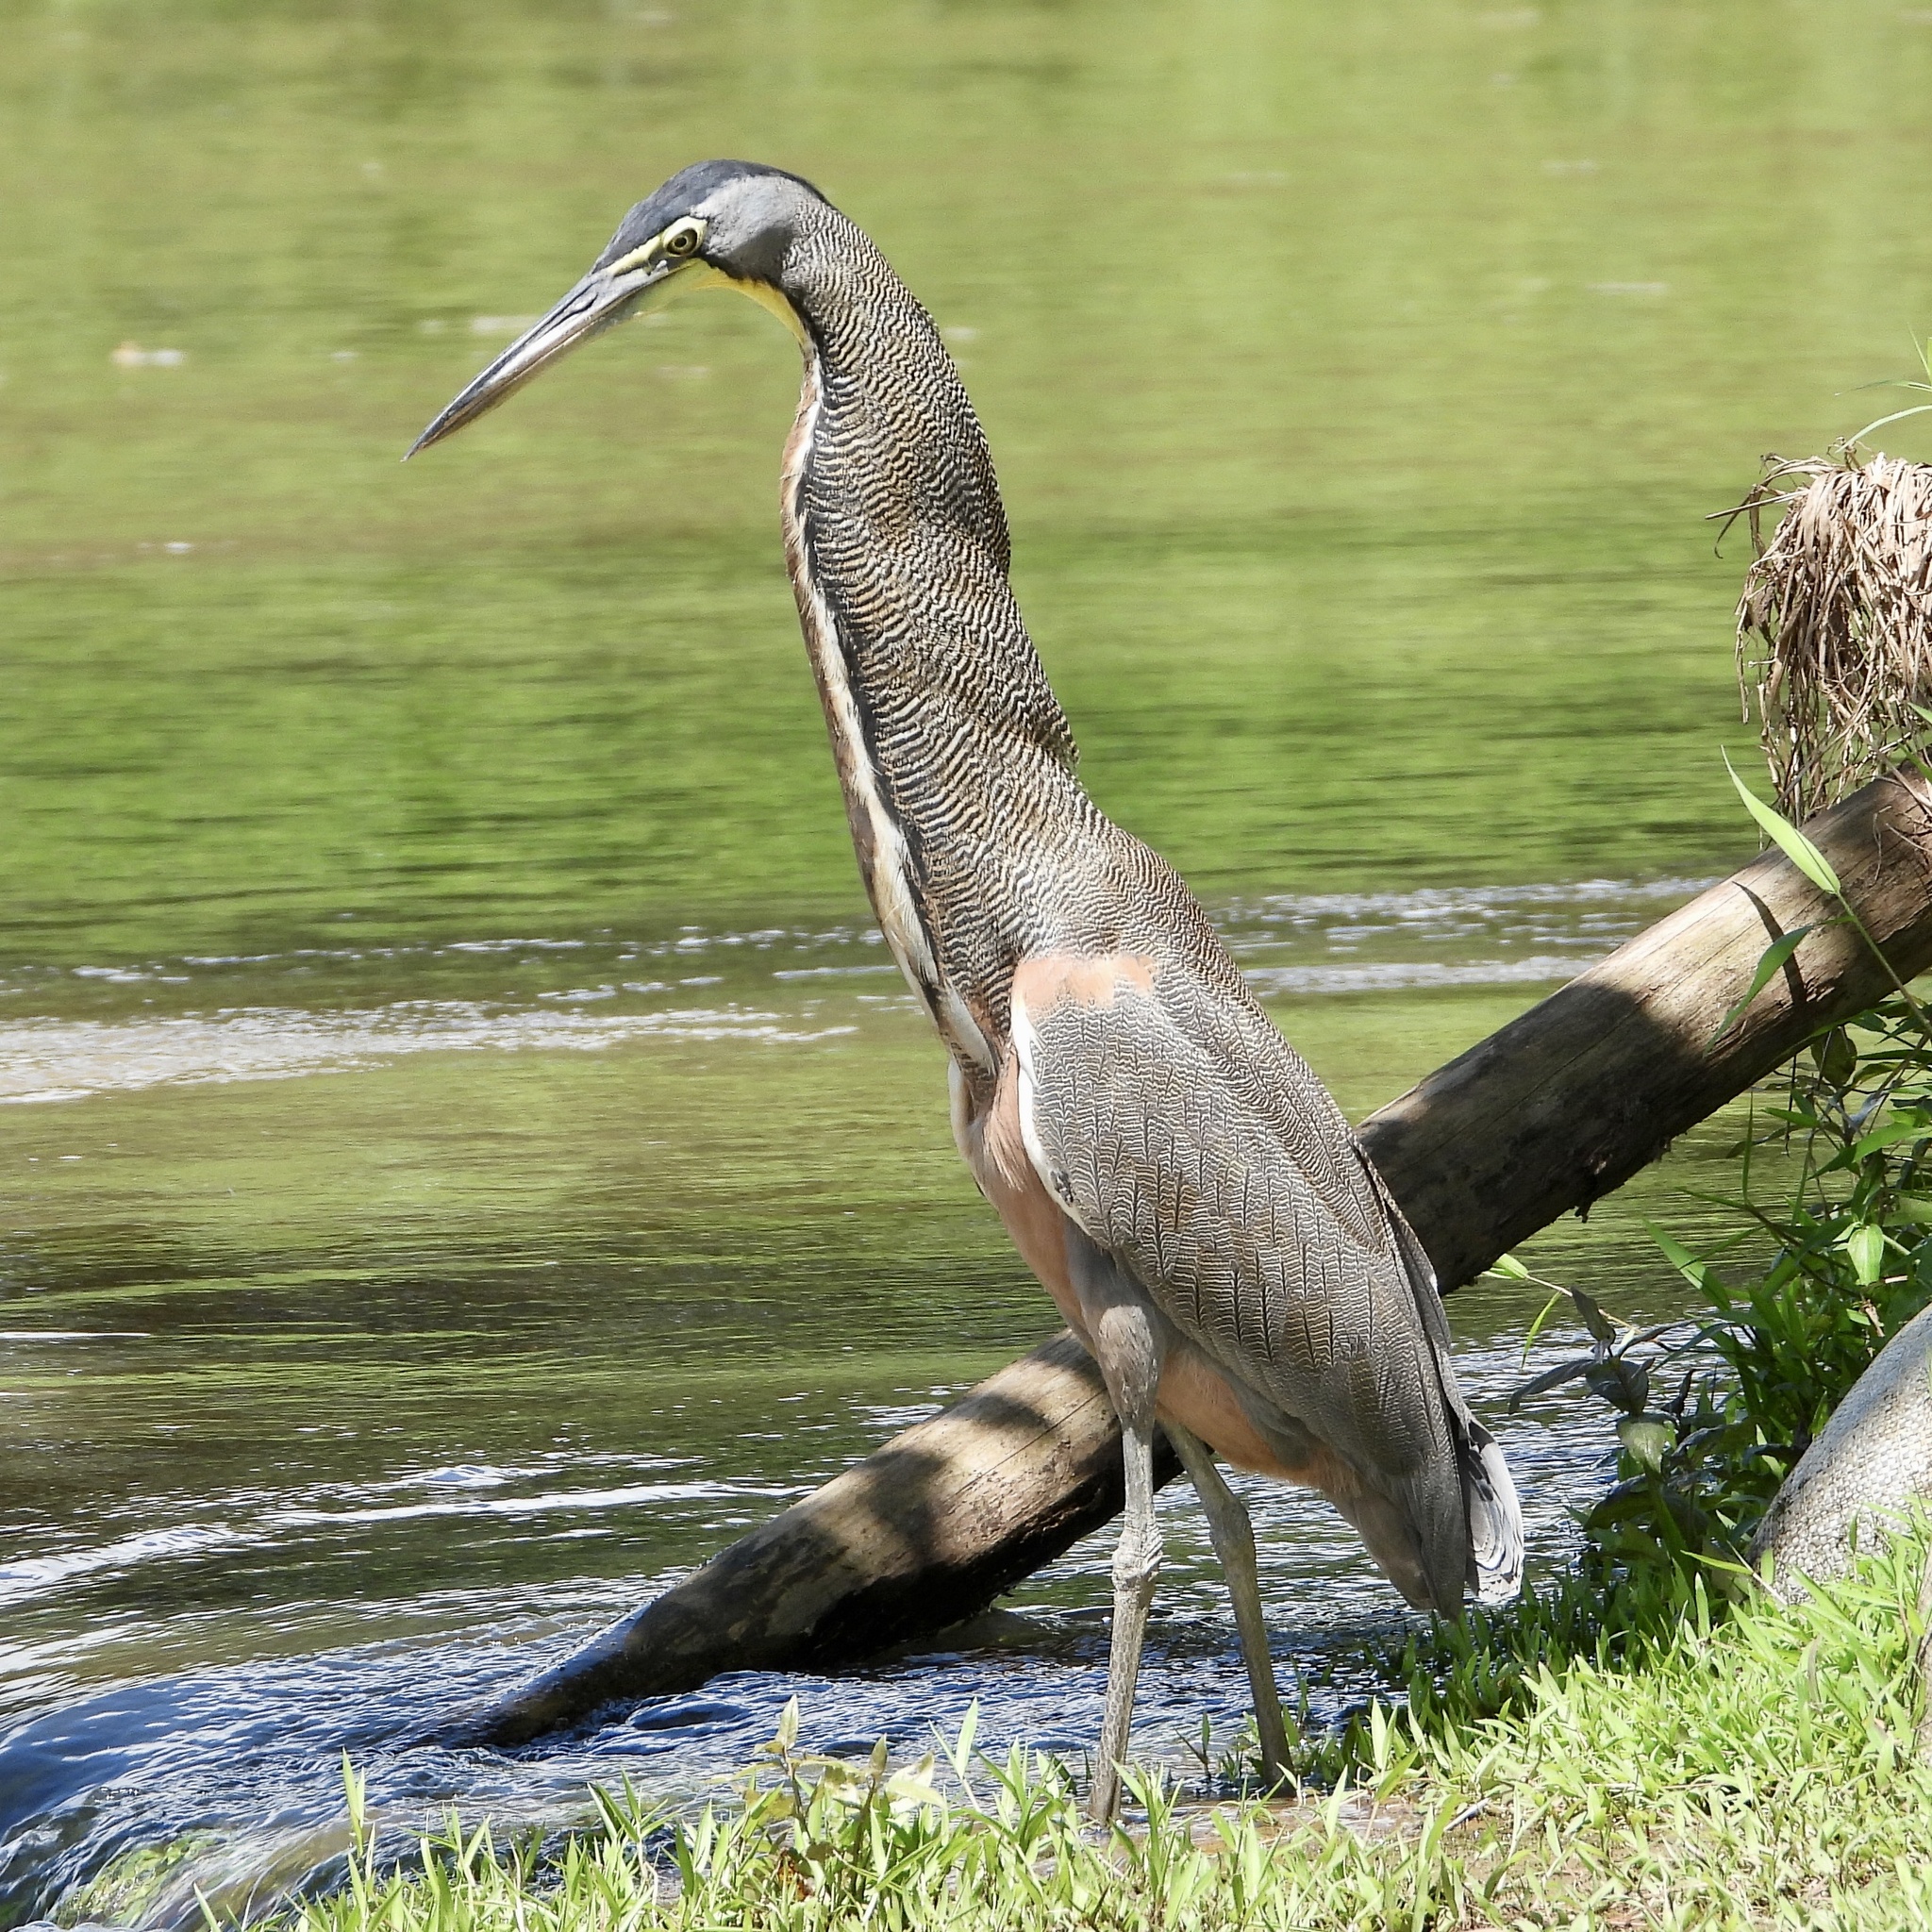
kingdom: Animalia
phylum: Chordata
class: Aves
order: Pelecaniformes
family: Ardeidae
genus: Tigrisoma
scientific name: Tigrisoma mexicanum
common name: Bare-throated tiger-heron
